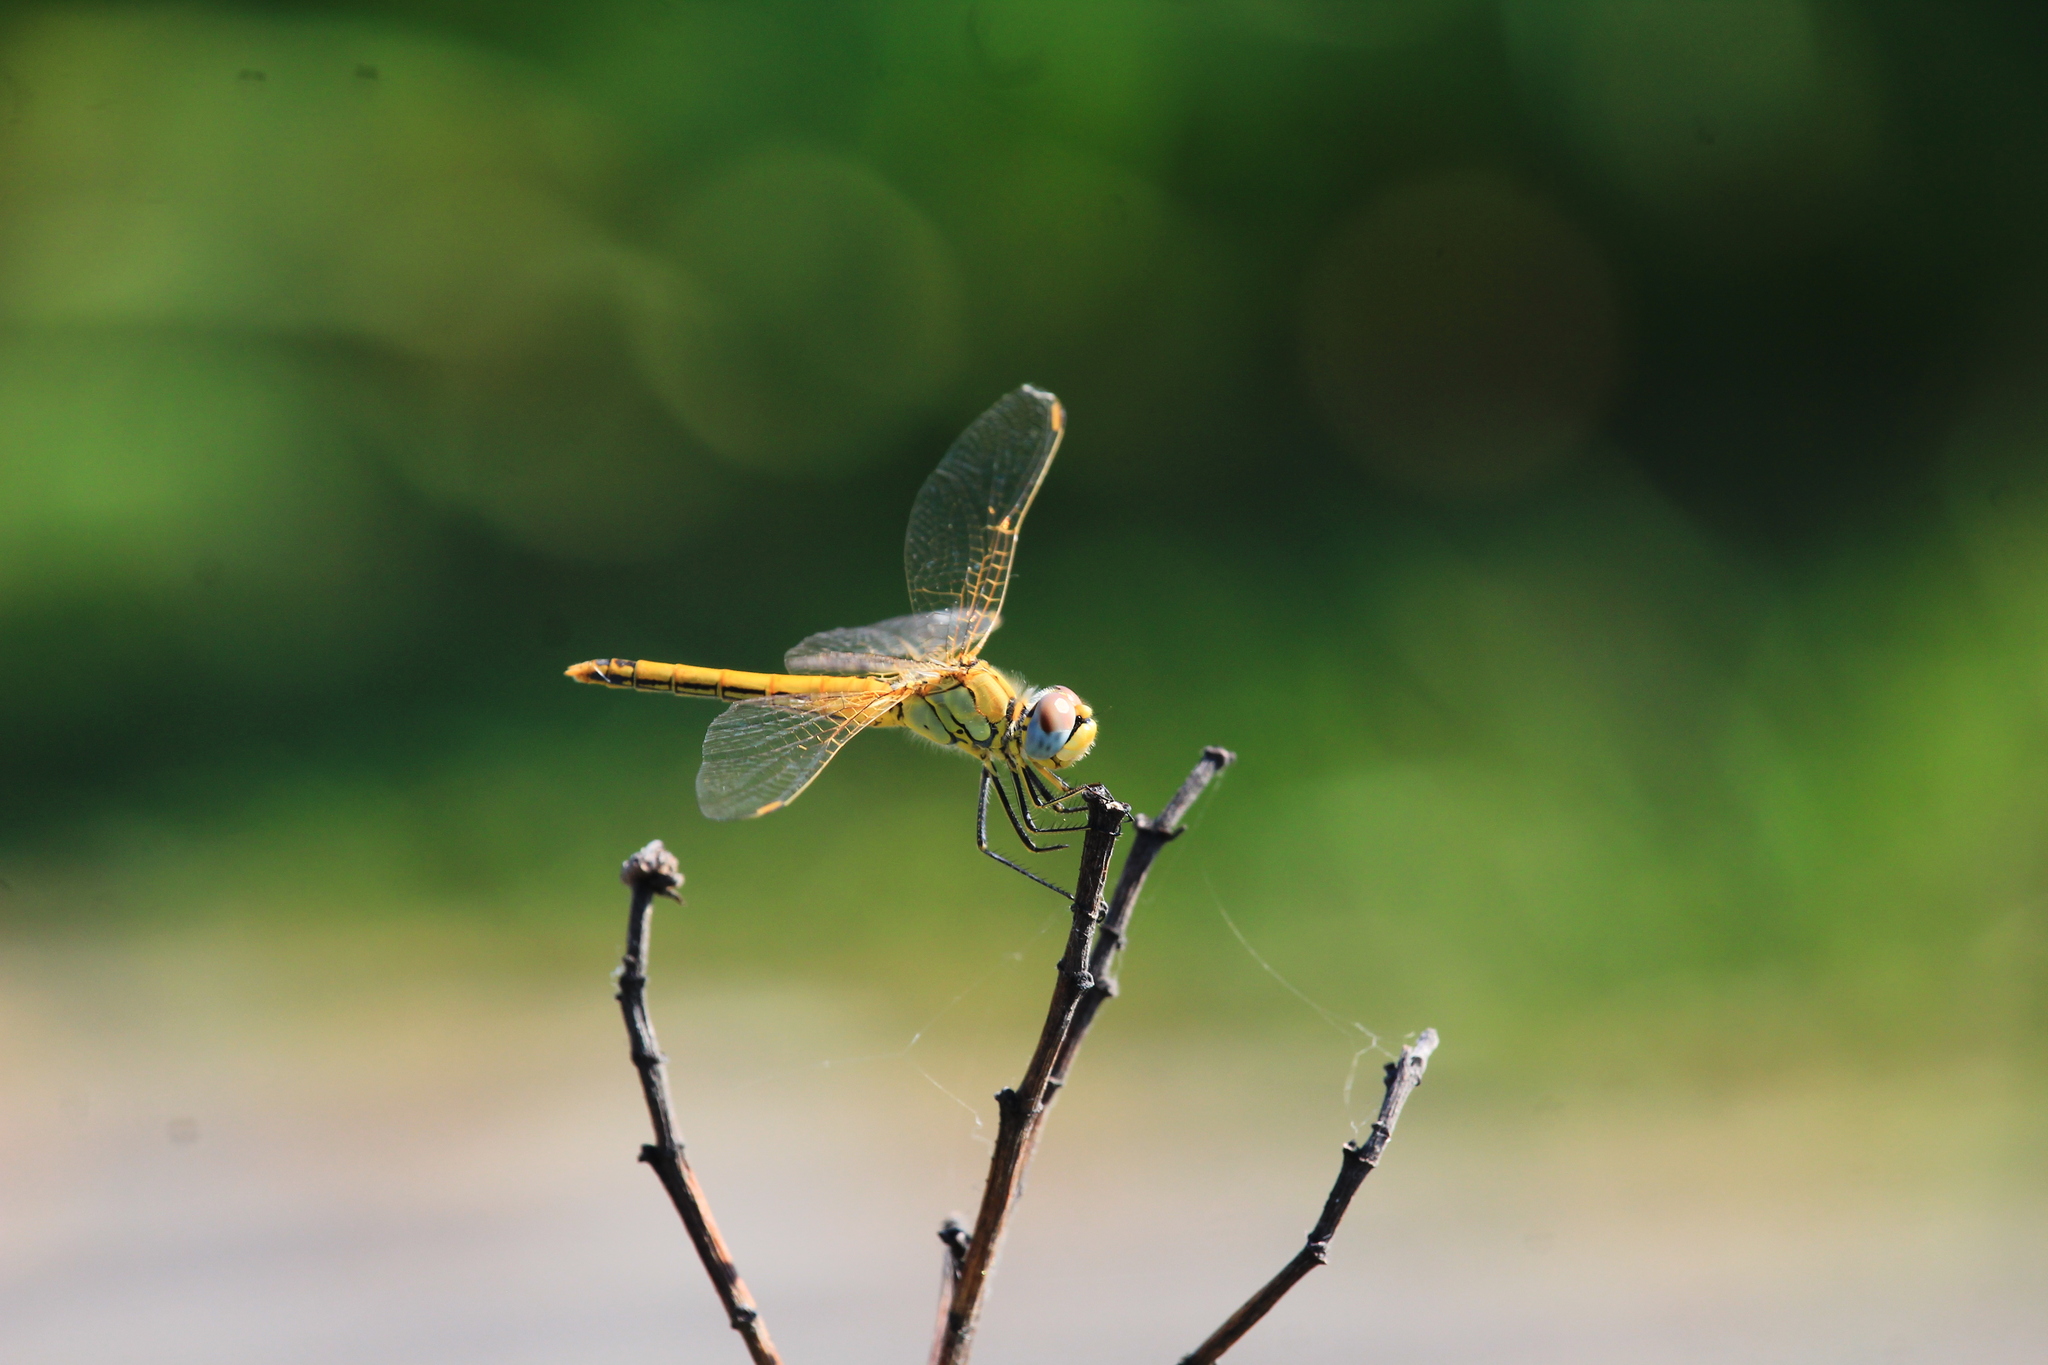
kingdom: Animalia
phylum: Arthropoda
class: Insecta
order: Odonata
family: Libellulidae
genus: Sympetrum
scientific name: Sympetrum fonscolombii
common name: Red-veined darter
